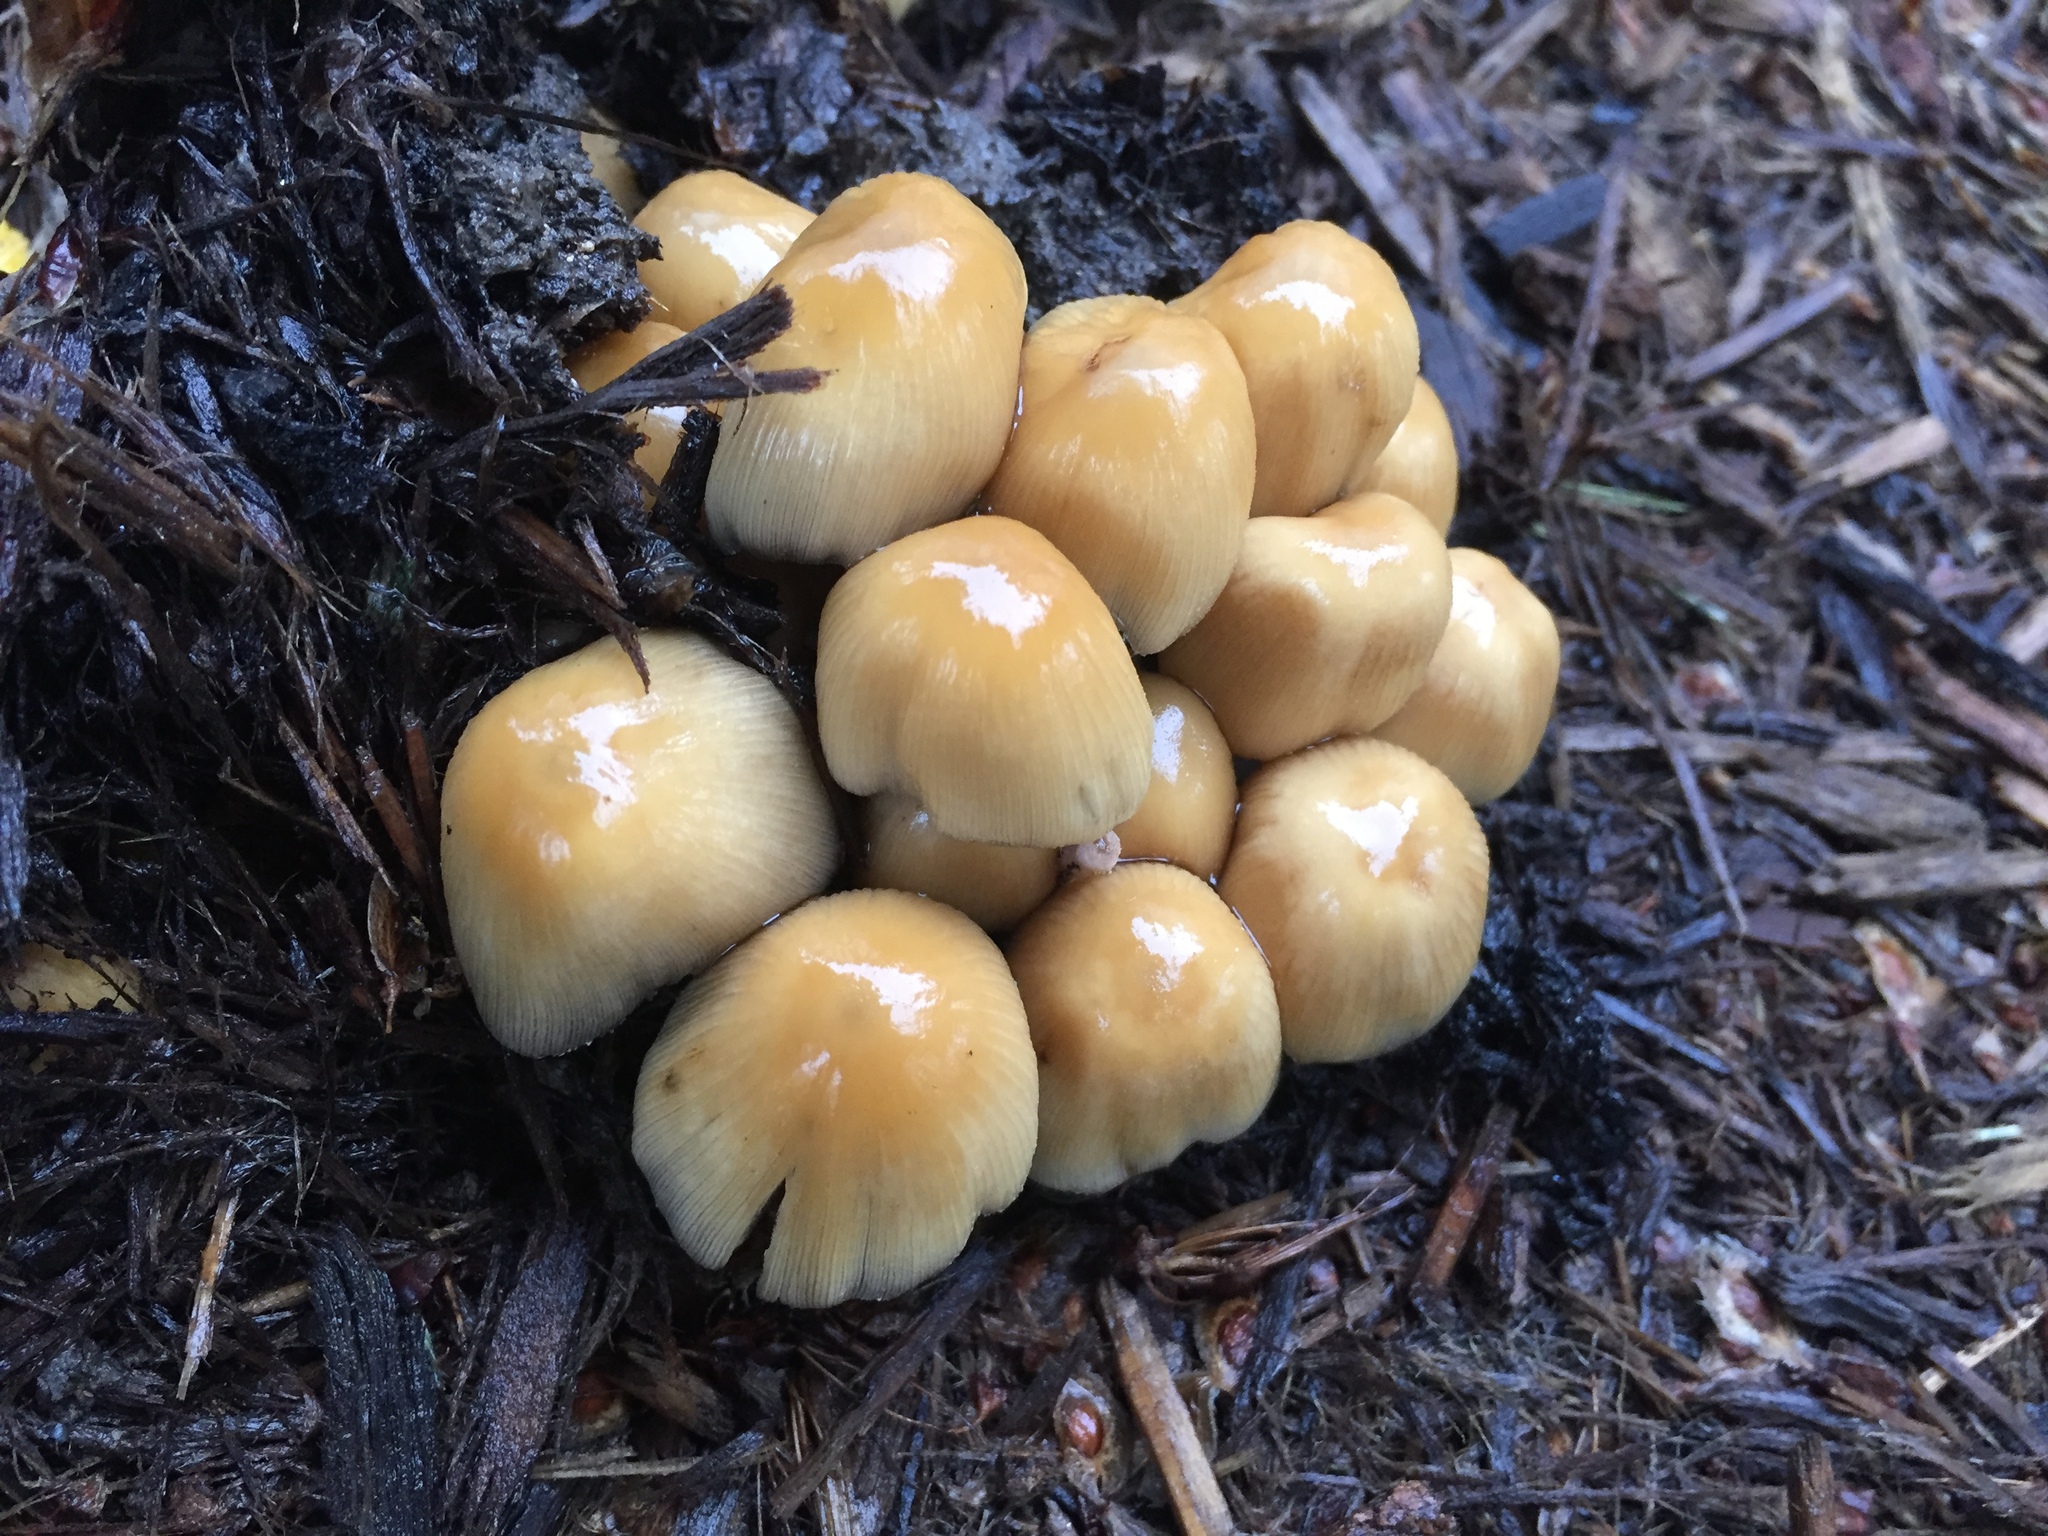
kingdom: Fungi
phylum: Basidiomycota
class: Agaricomycetes
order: Agaricales
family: Psathyrellaceae
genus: Coprinellus
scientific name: Coprinellus micaceus
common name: Glistening ink-cap
